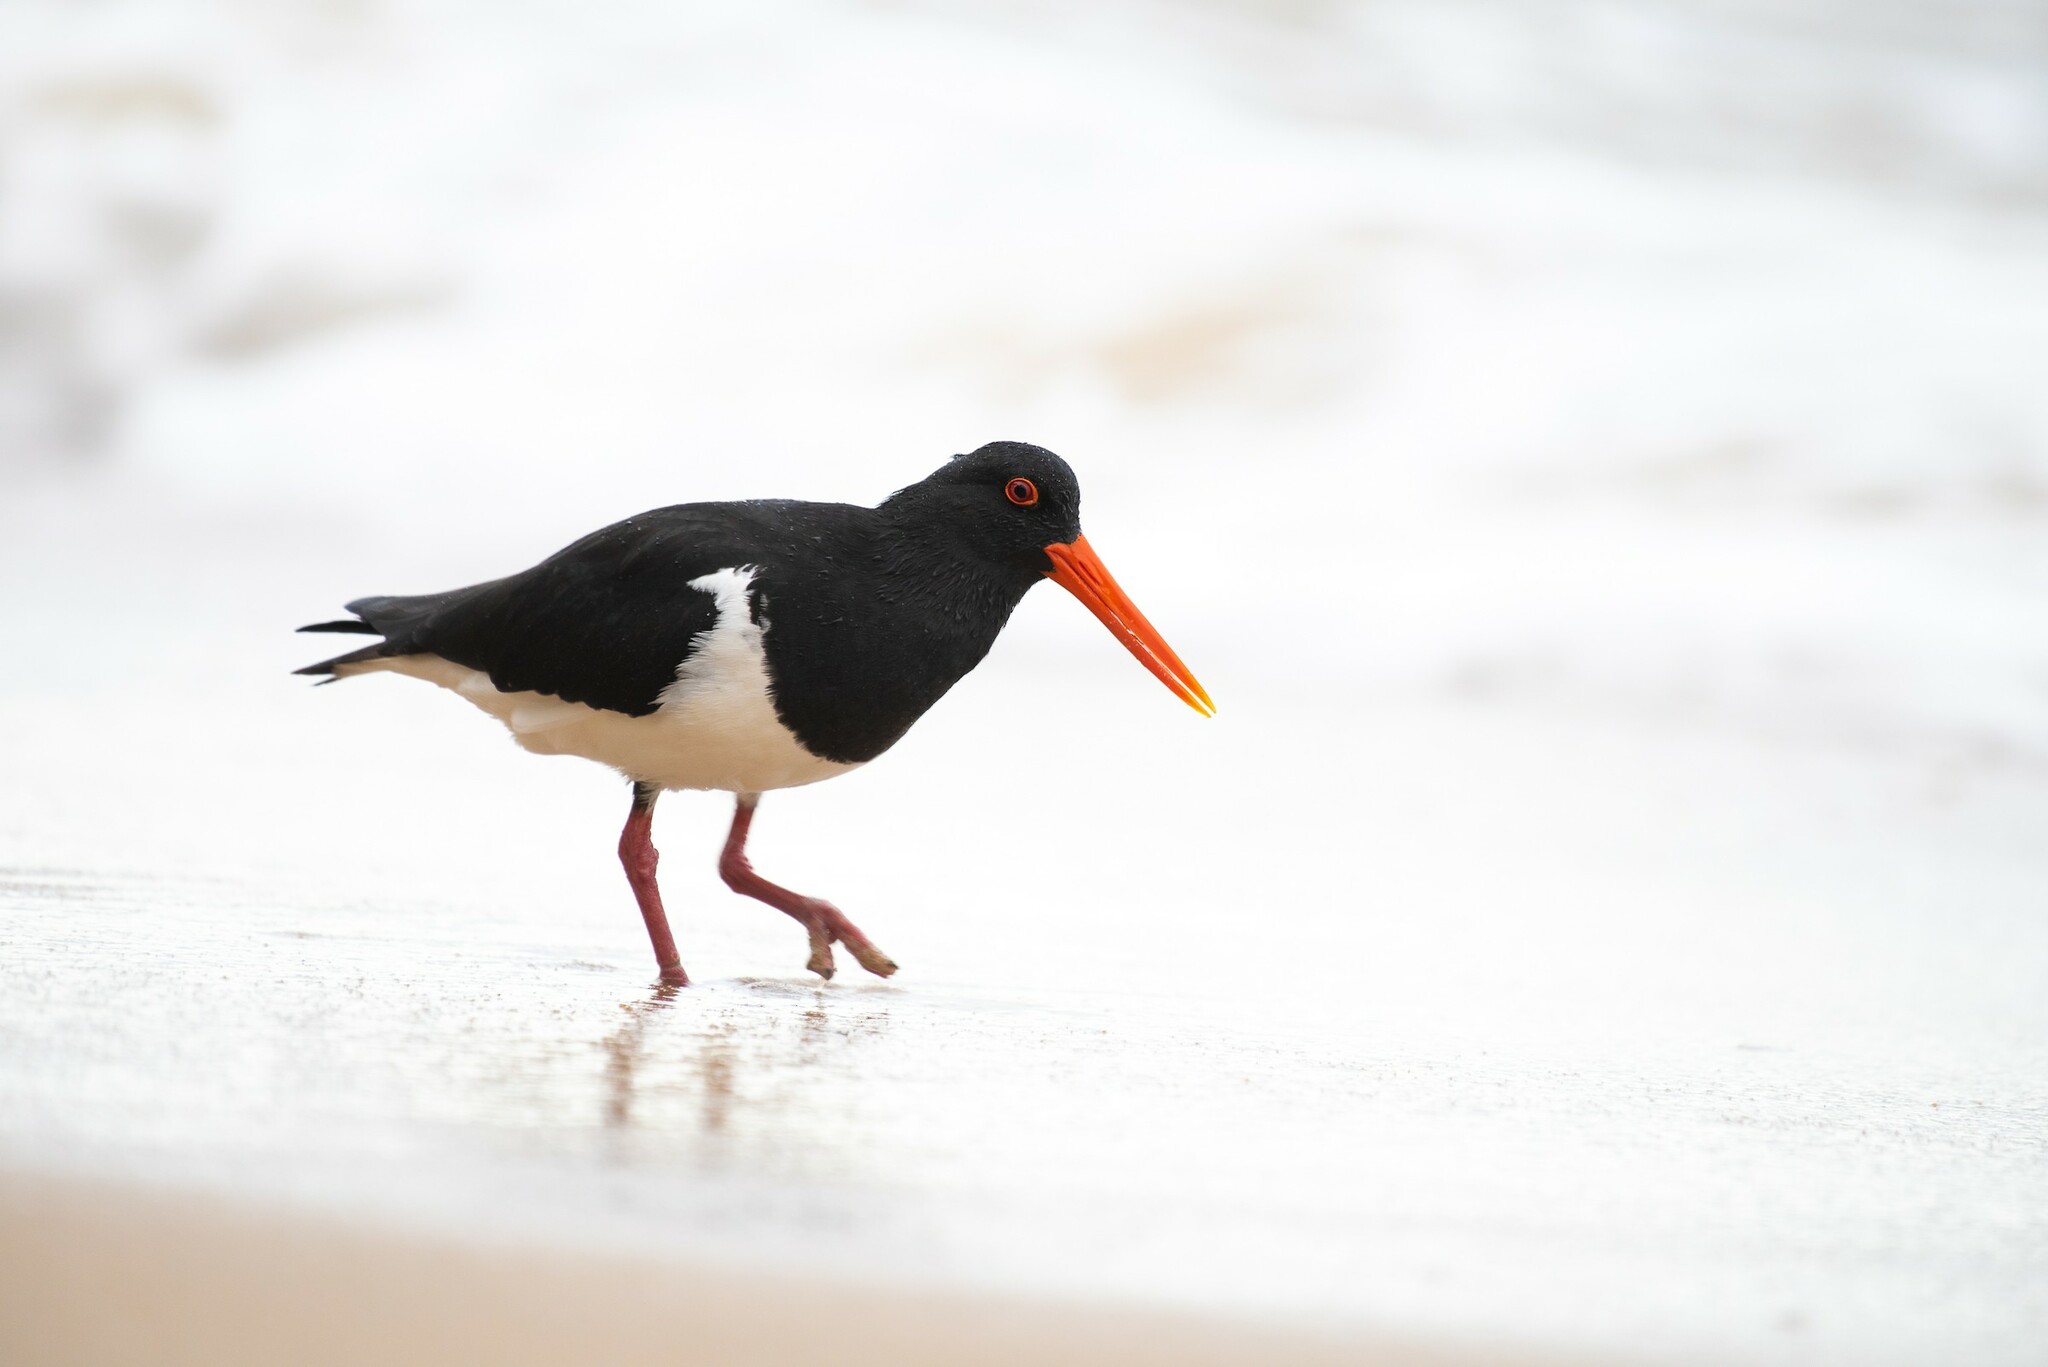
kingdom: Animalia
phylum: Chordata
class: Aves
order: Charadriiformes
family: Haematopodidae
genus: Haematopus
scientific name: Haematopus longirostris
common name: Pied oystercatcher
